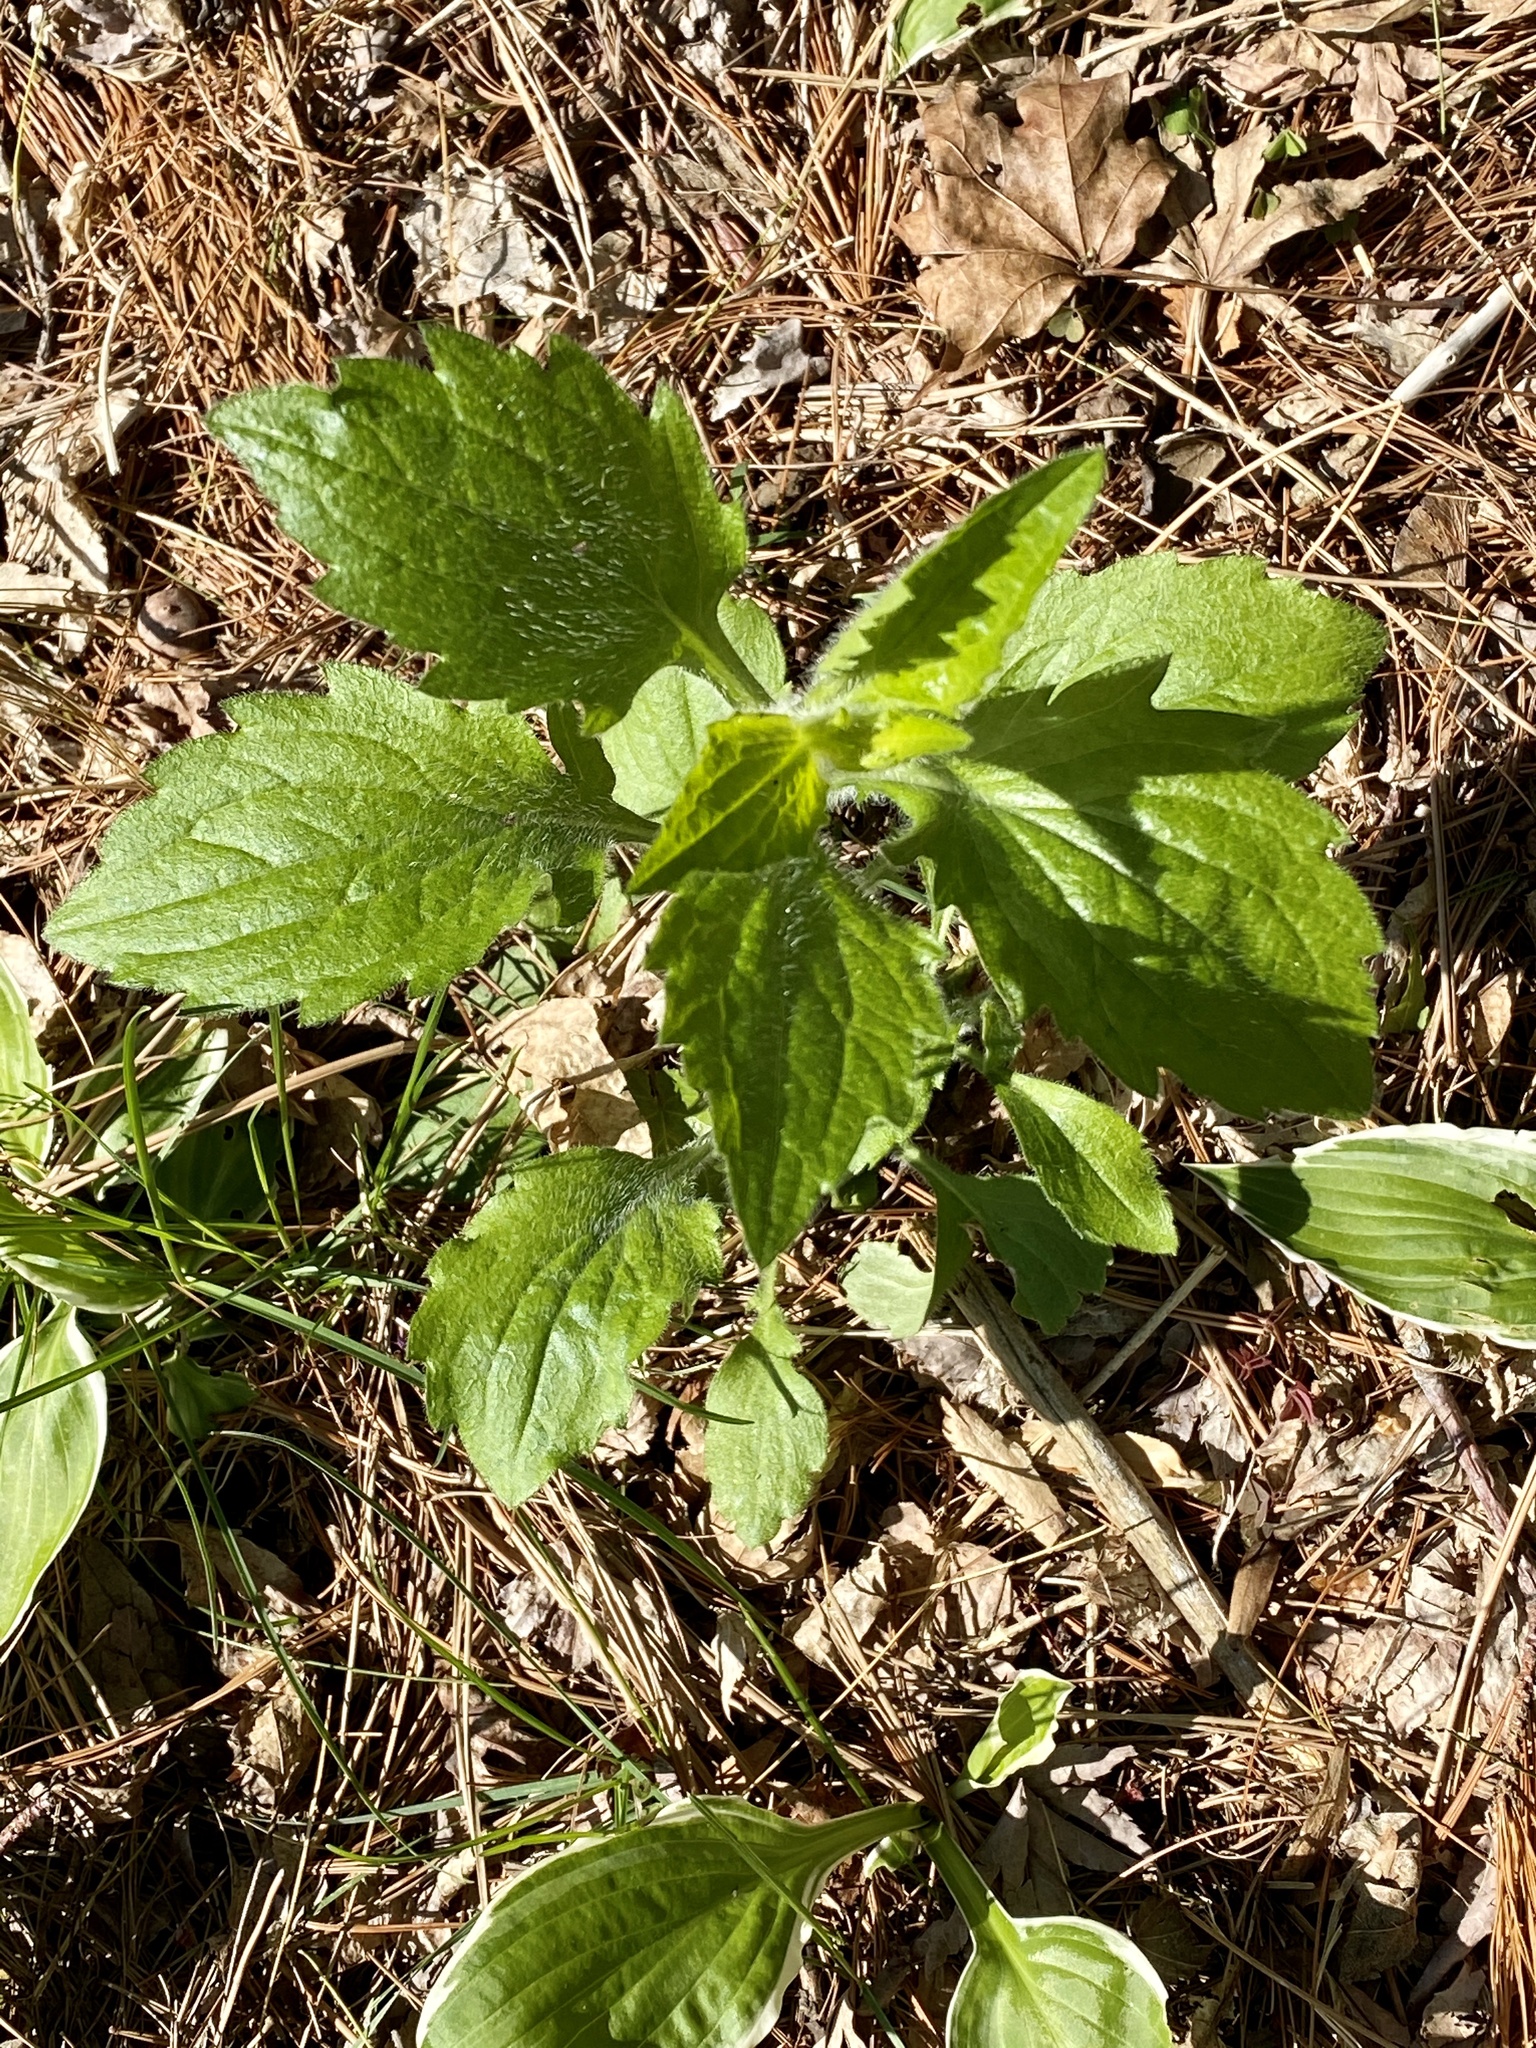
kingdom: Plantae
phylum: Tracheophyta
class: Magnoliopsida
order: Asterales
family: Asteraceae
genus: Erigeron
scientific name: Erigeron annuus
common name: Tall fleabane
